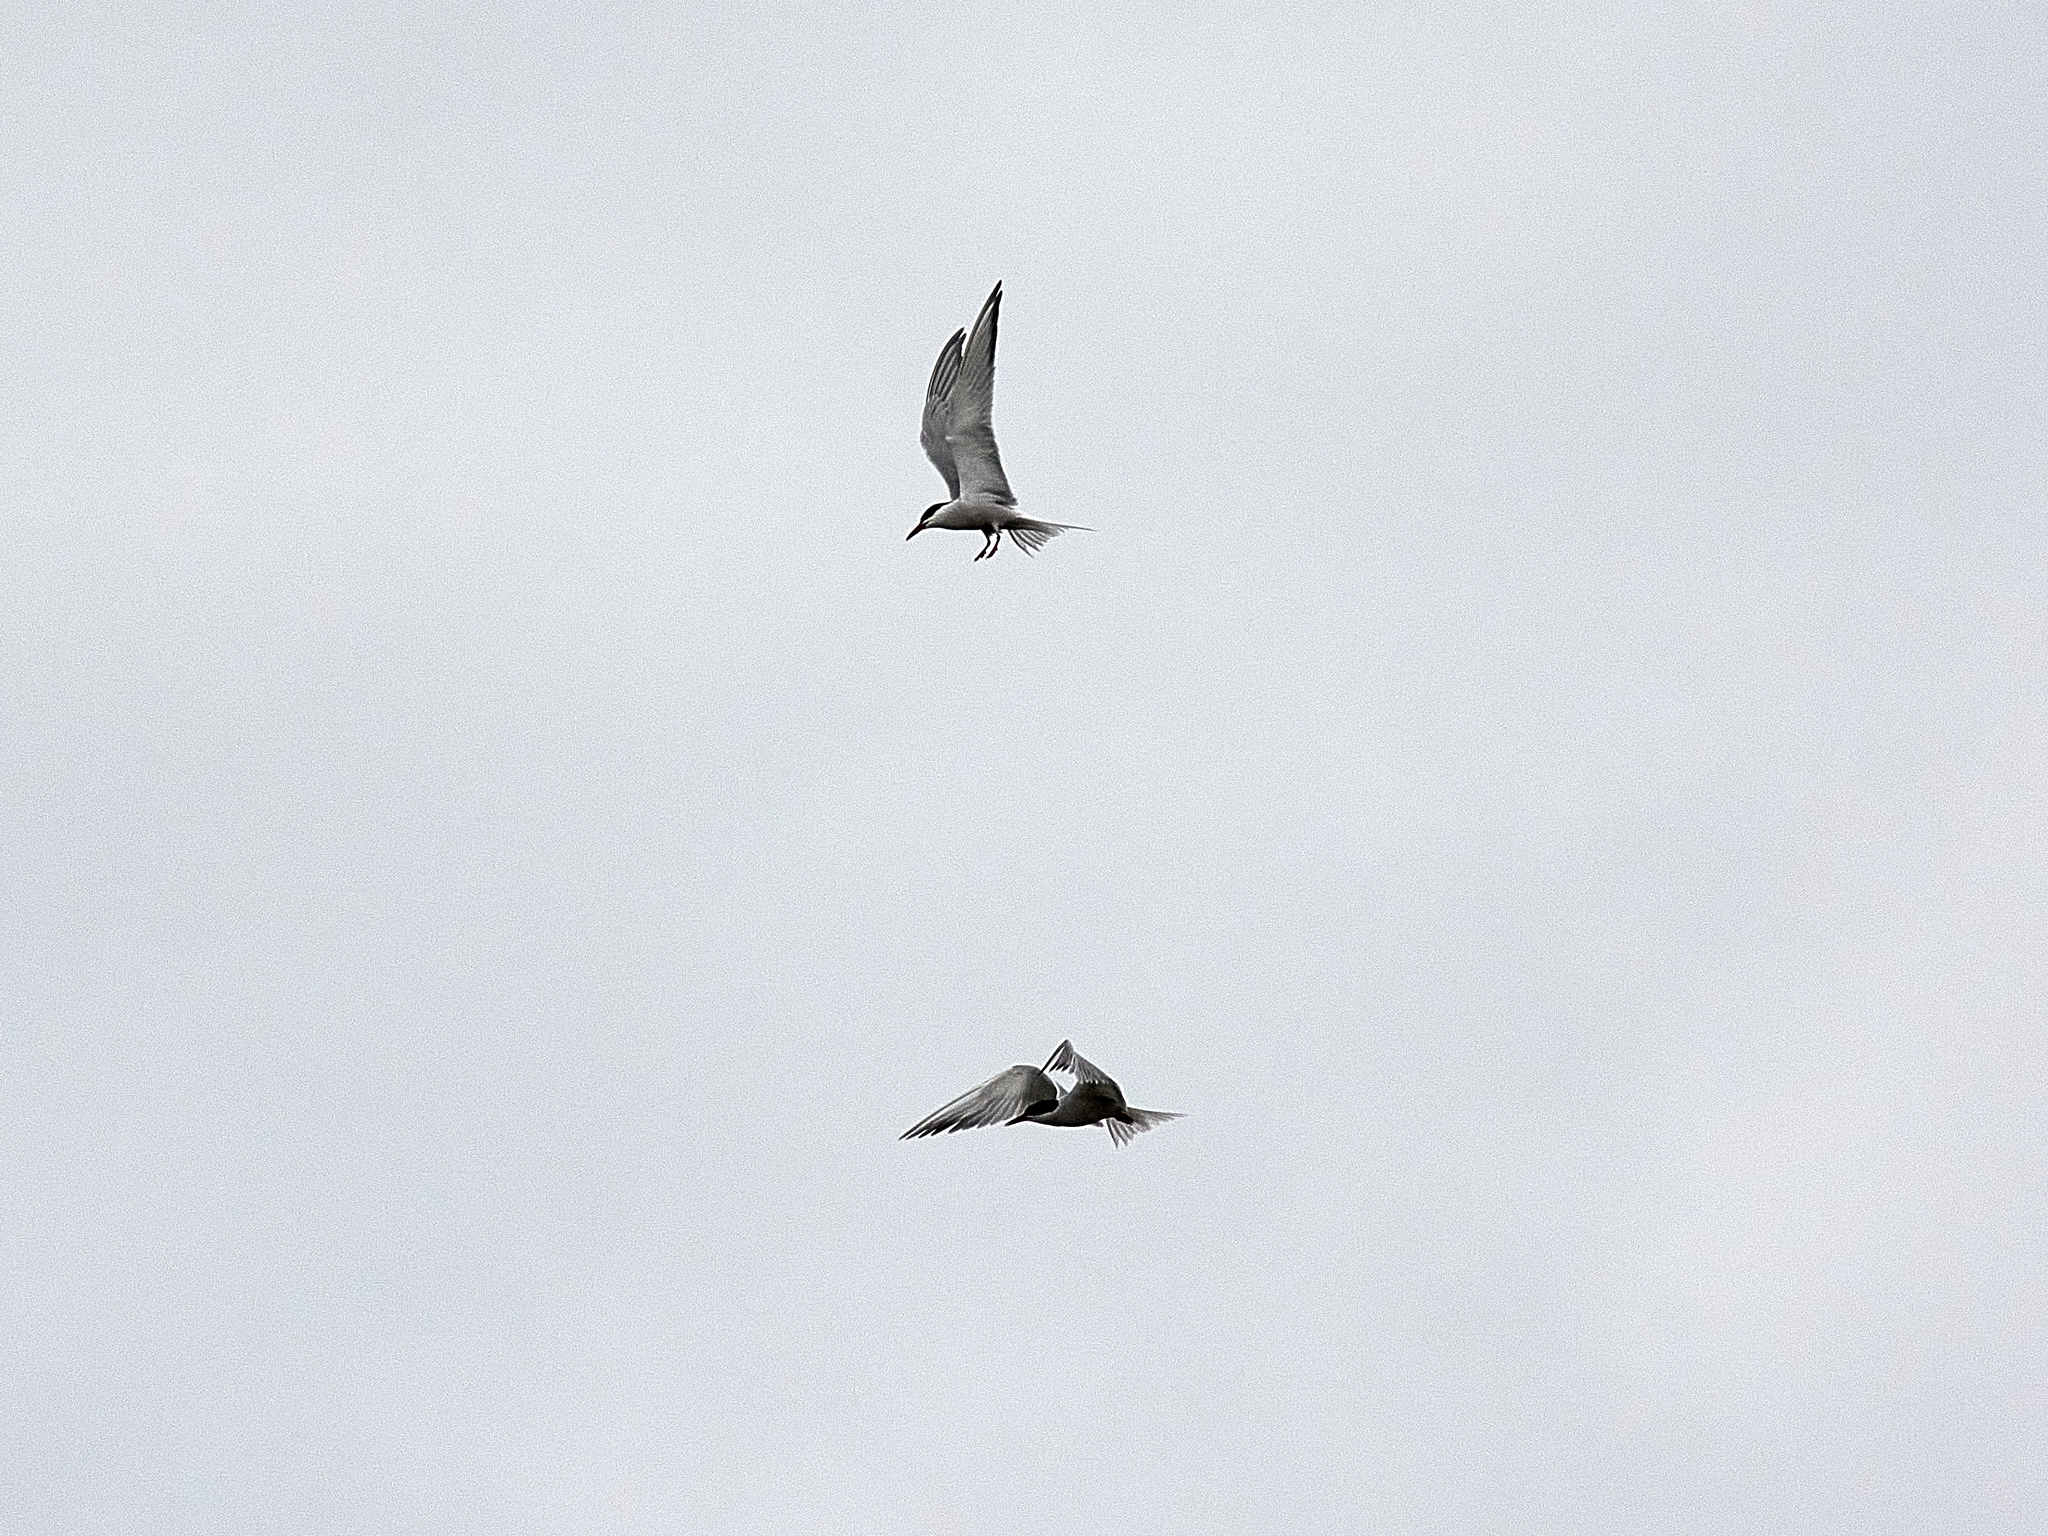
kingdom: Animalia
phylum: Chordata
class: Aves
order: Charadriiformes
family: Laridae
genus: Sterna
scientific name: Sterna hirundo
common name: Common tern
